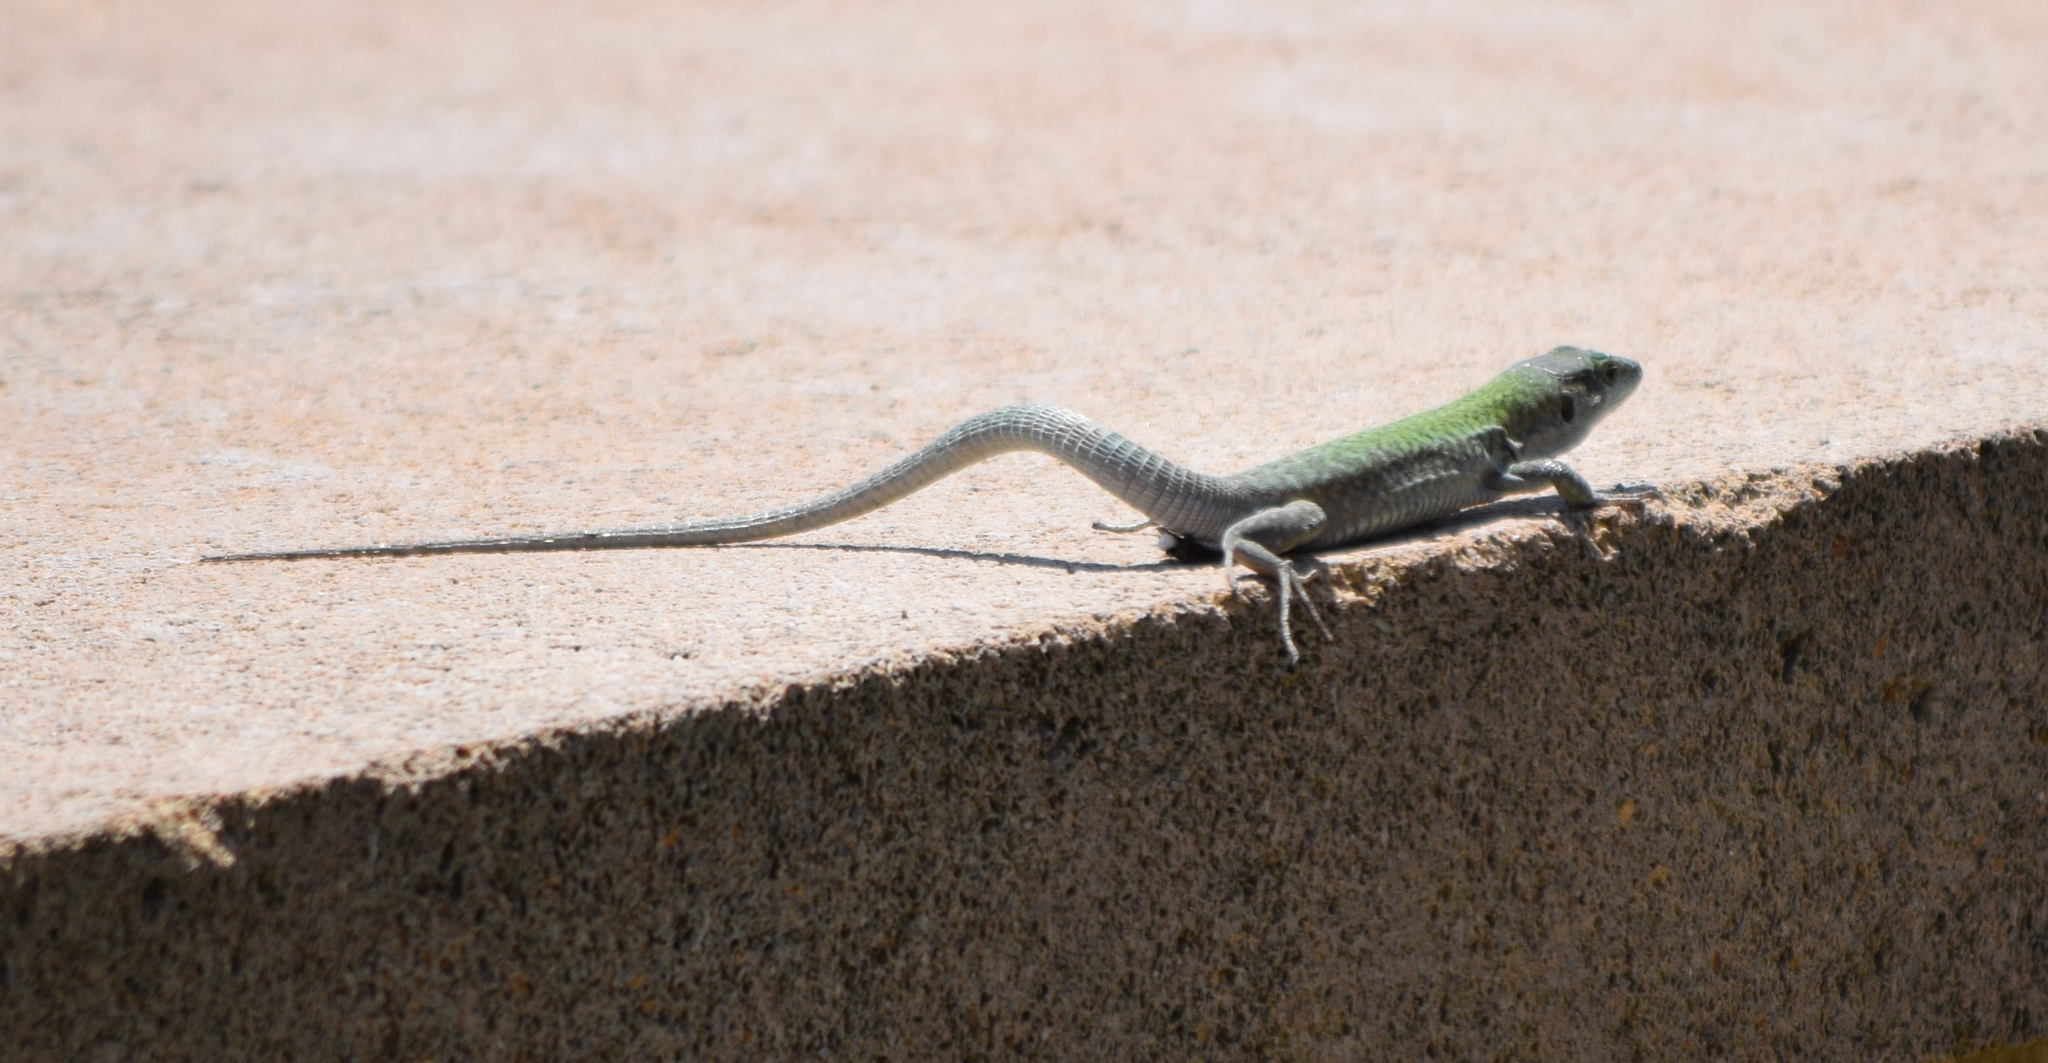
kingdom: Animalia
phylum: Chordata
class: Squamata
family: Lacertidae
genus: Podarcis
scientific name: Podarcis siculus
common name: Italian wall lizard
